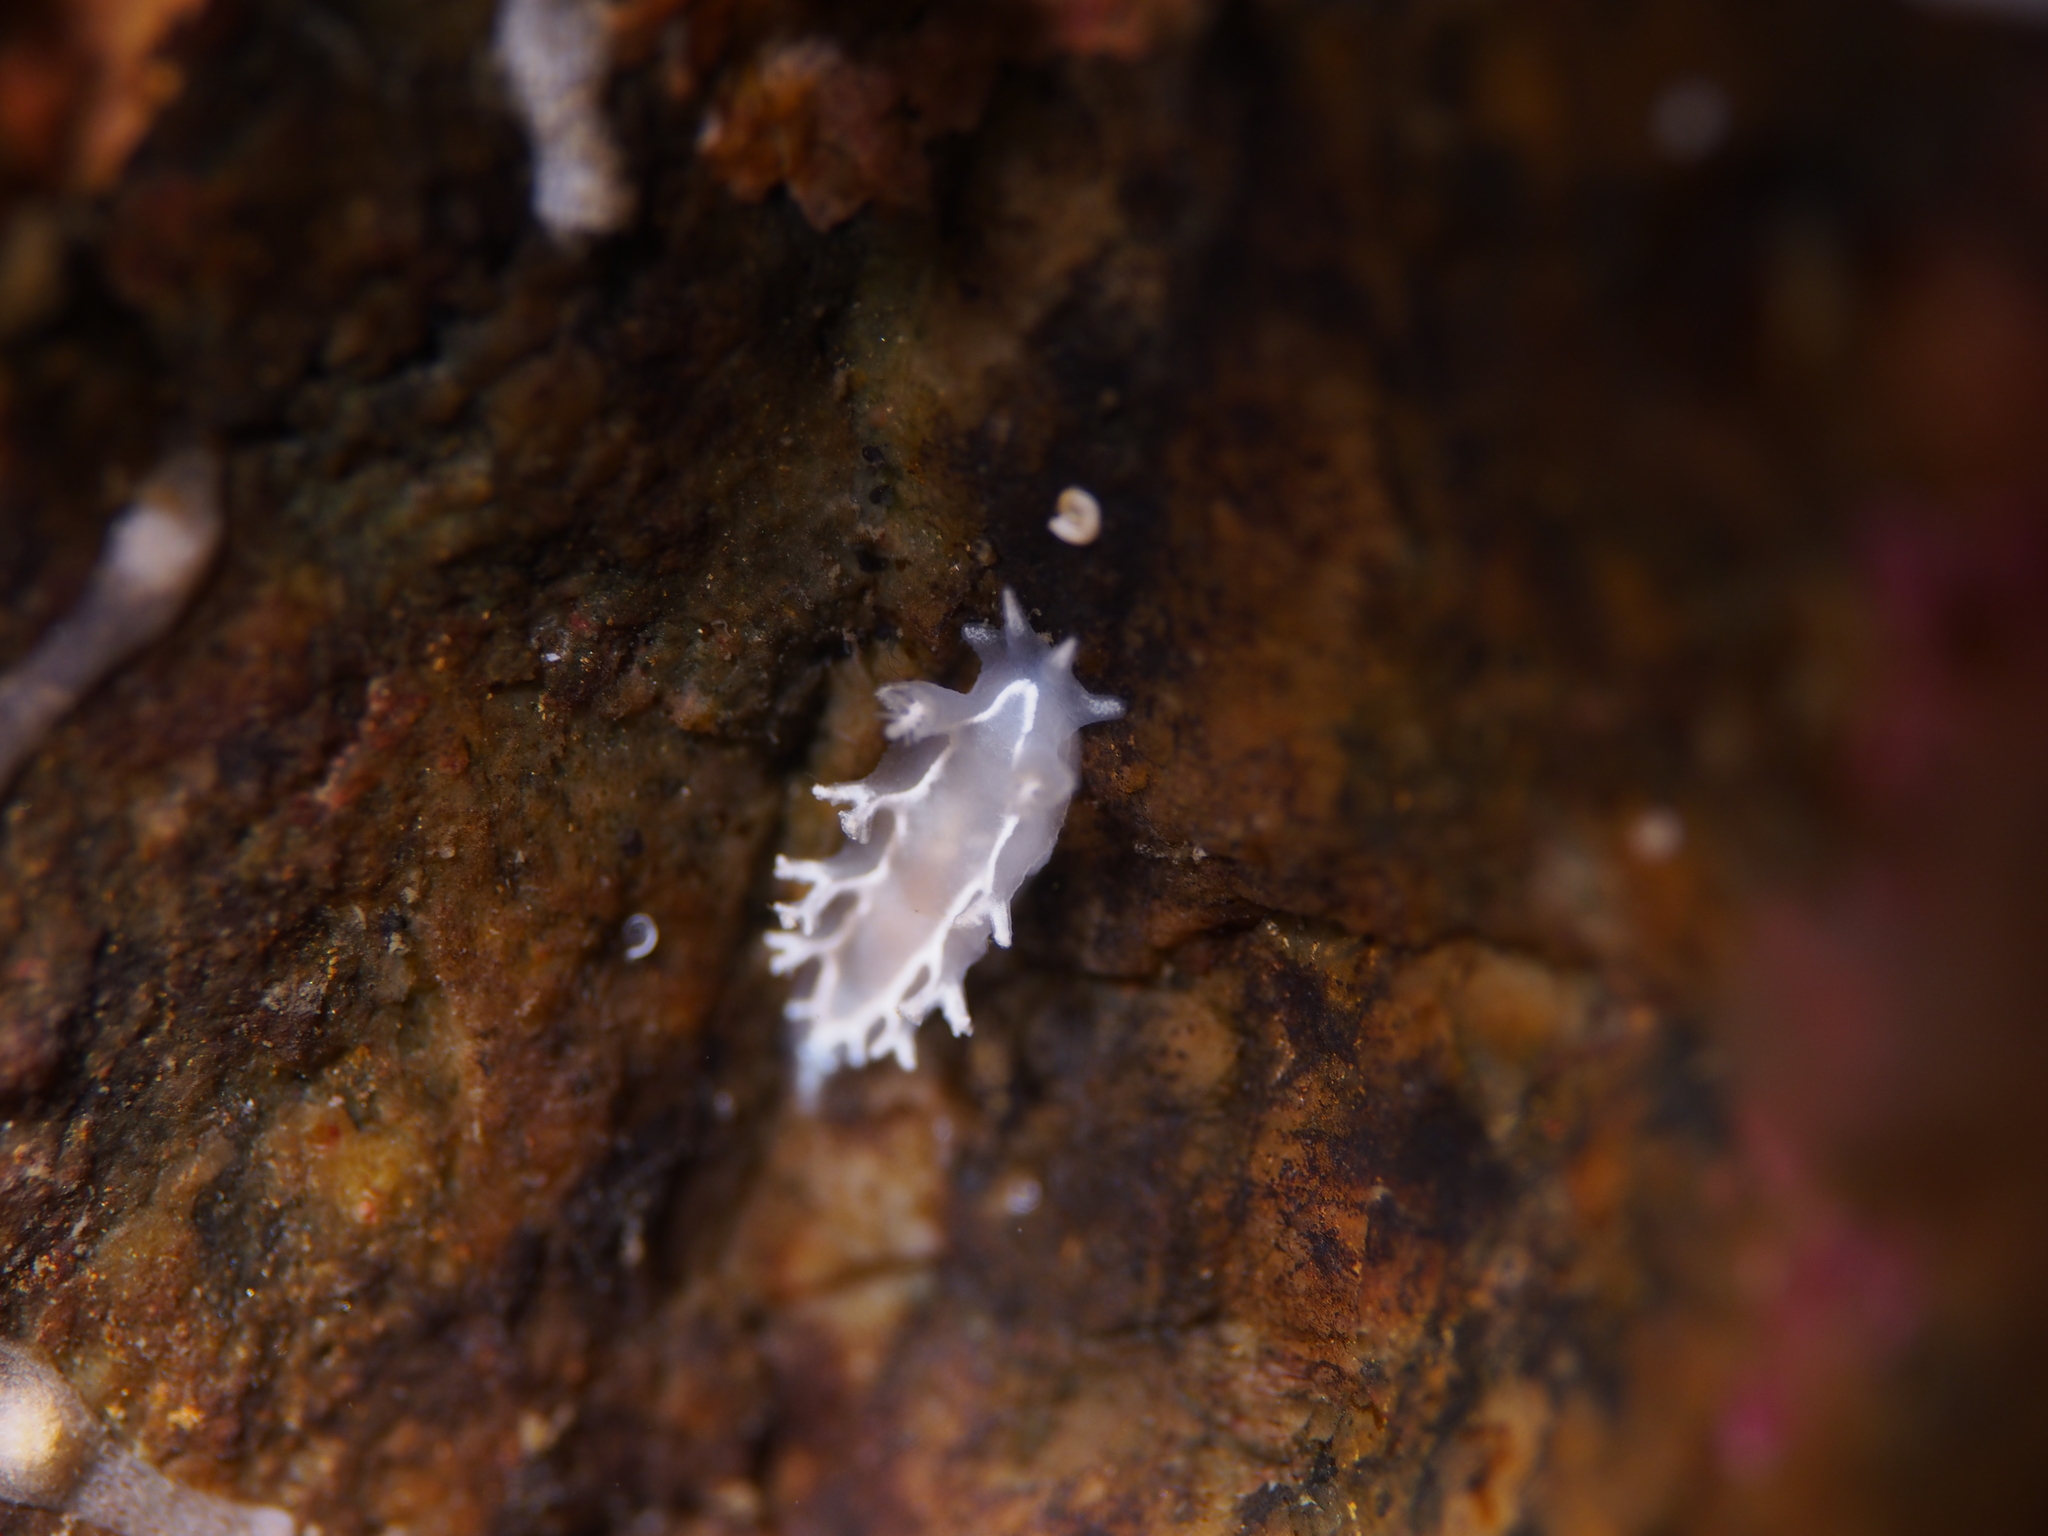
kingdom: Animalia
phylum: Mollusca
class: Gastropoda
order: Nudibranchia
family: Tritoniidae
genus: Duvaucelia
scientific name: Duvaucelia lineata
